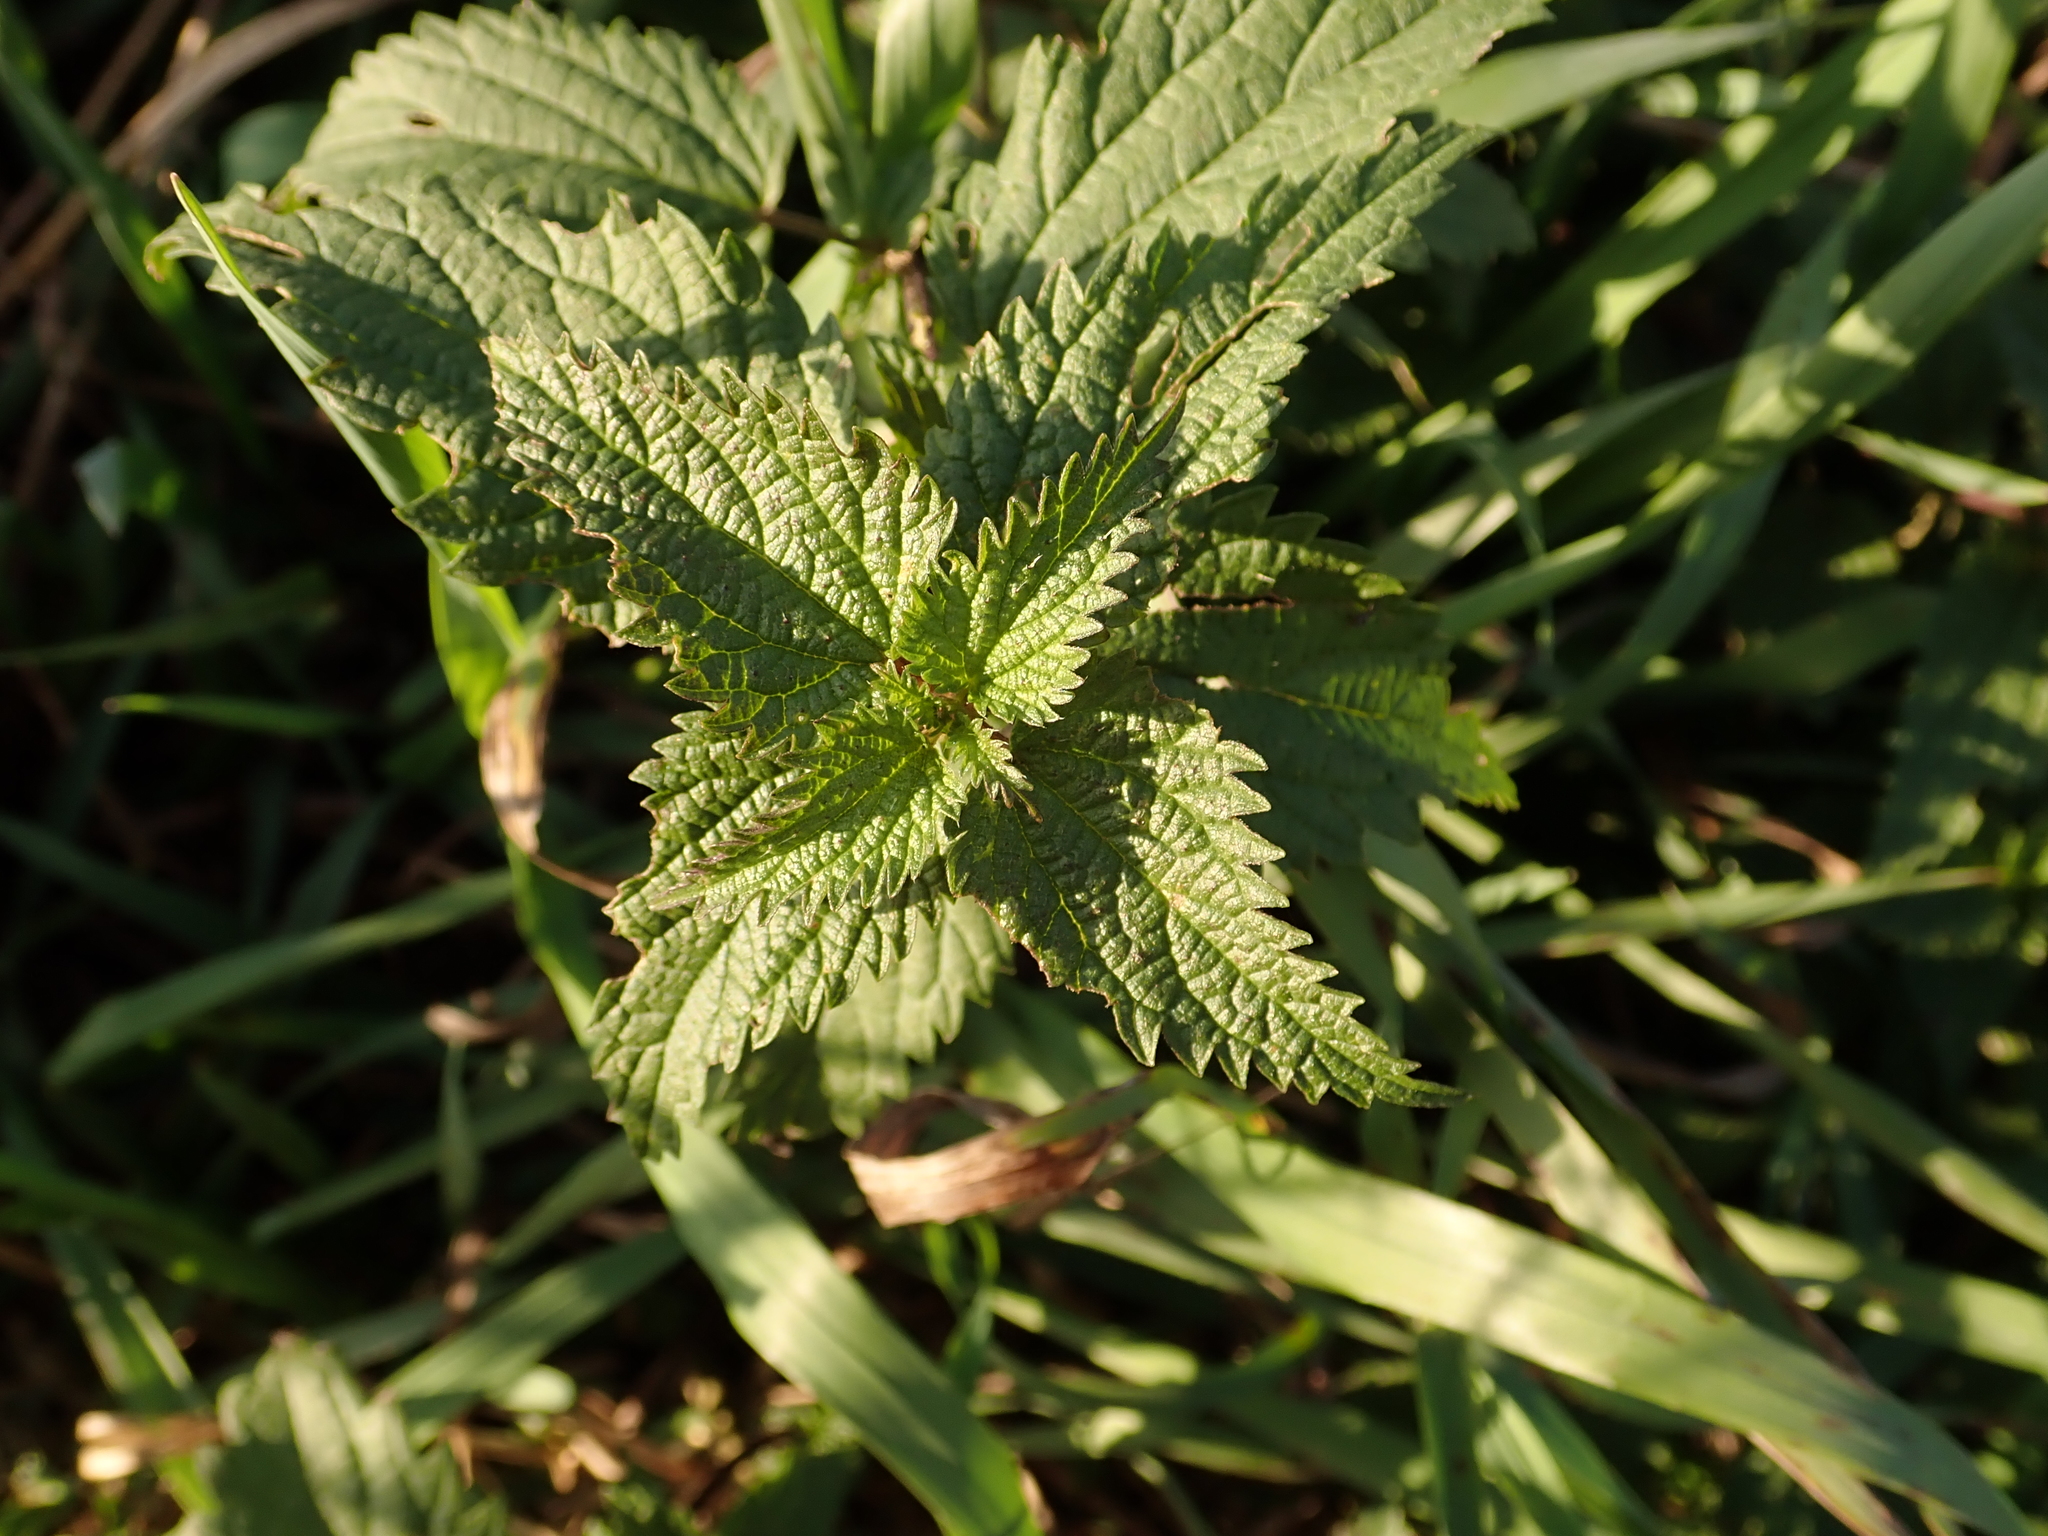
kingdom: Plantae
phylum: Tracheophyta
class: Magnoliopsida
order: Rosales
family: Urticaceae
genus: Urtica
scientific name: Urtica dioica
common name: Common nettle
